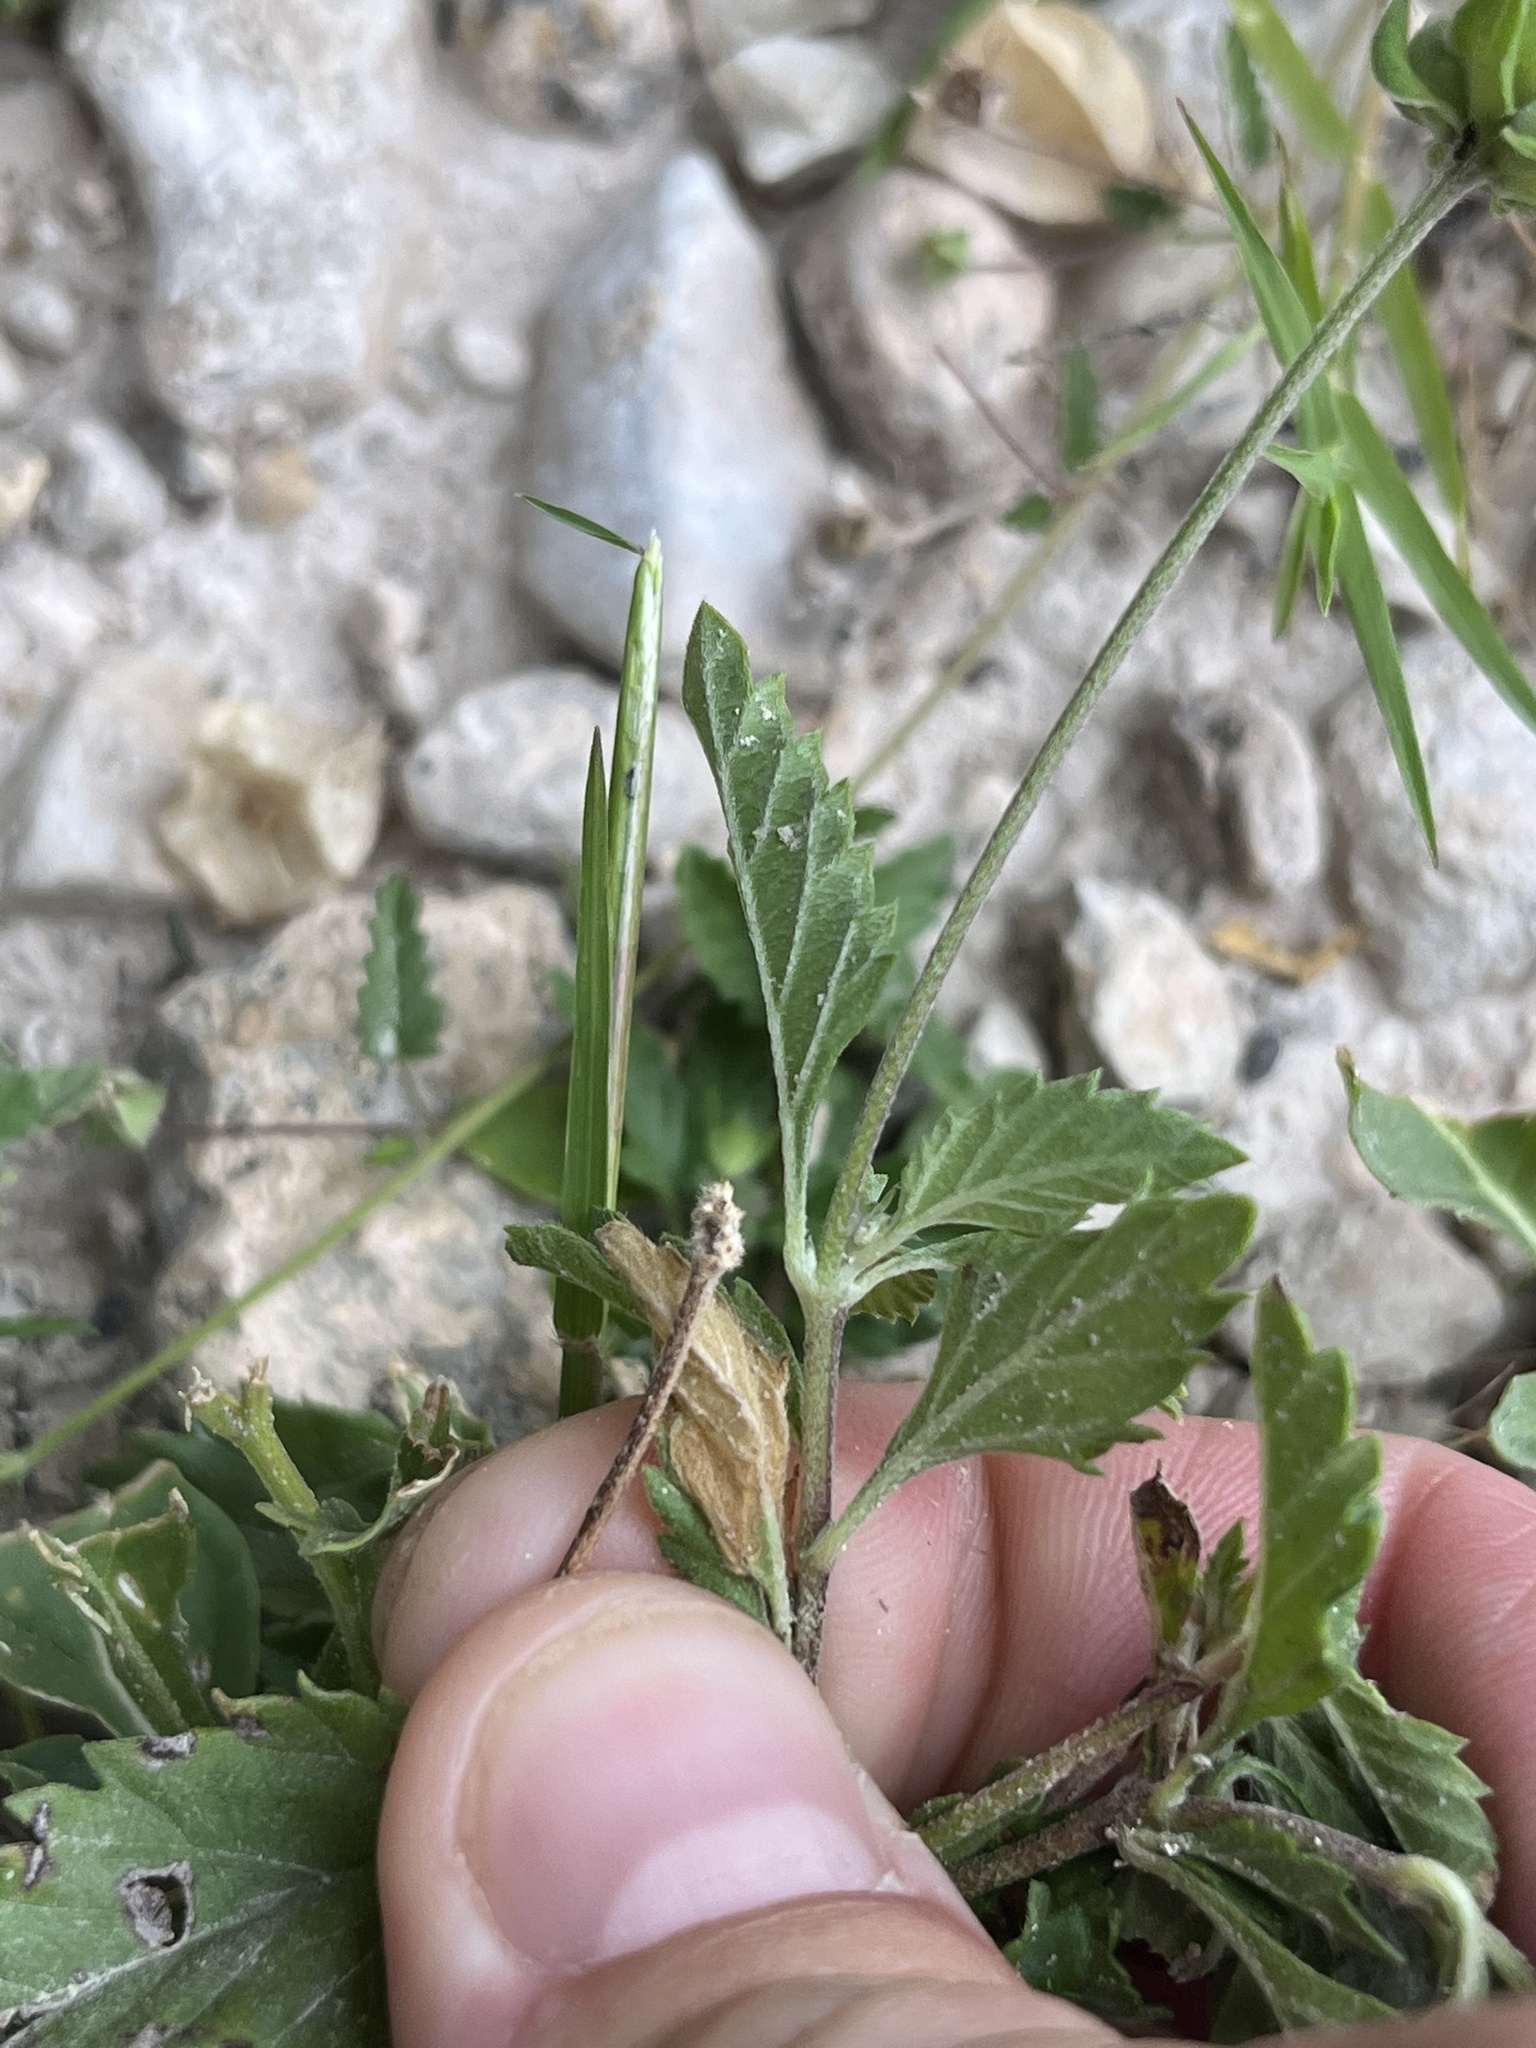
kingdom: Plantae
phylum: Tracheophyta
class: Magnoliopsida
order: Lamiales
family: Verbenaceae
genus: Lantana
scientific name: Lantana achyranthifolia
